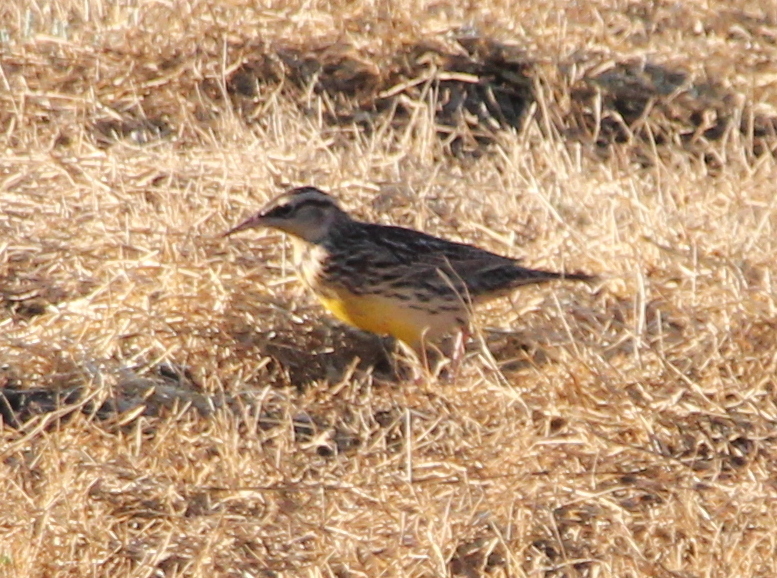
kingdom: Animalia
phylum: Chordata
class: Aves
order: Passeriformes
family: Icteridae
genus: Sturnella
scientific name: Sturnella neglecta
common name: Western meadowlark
